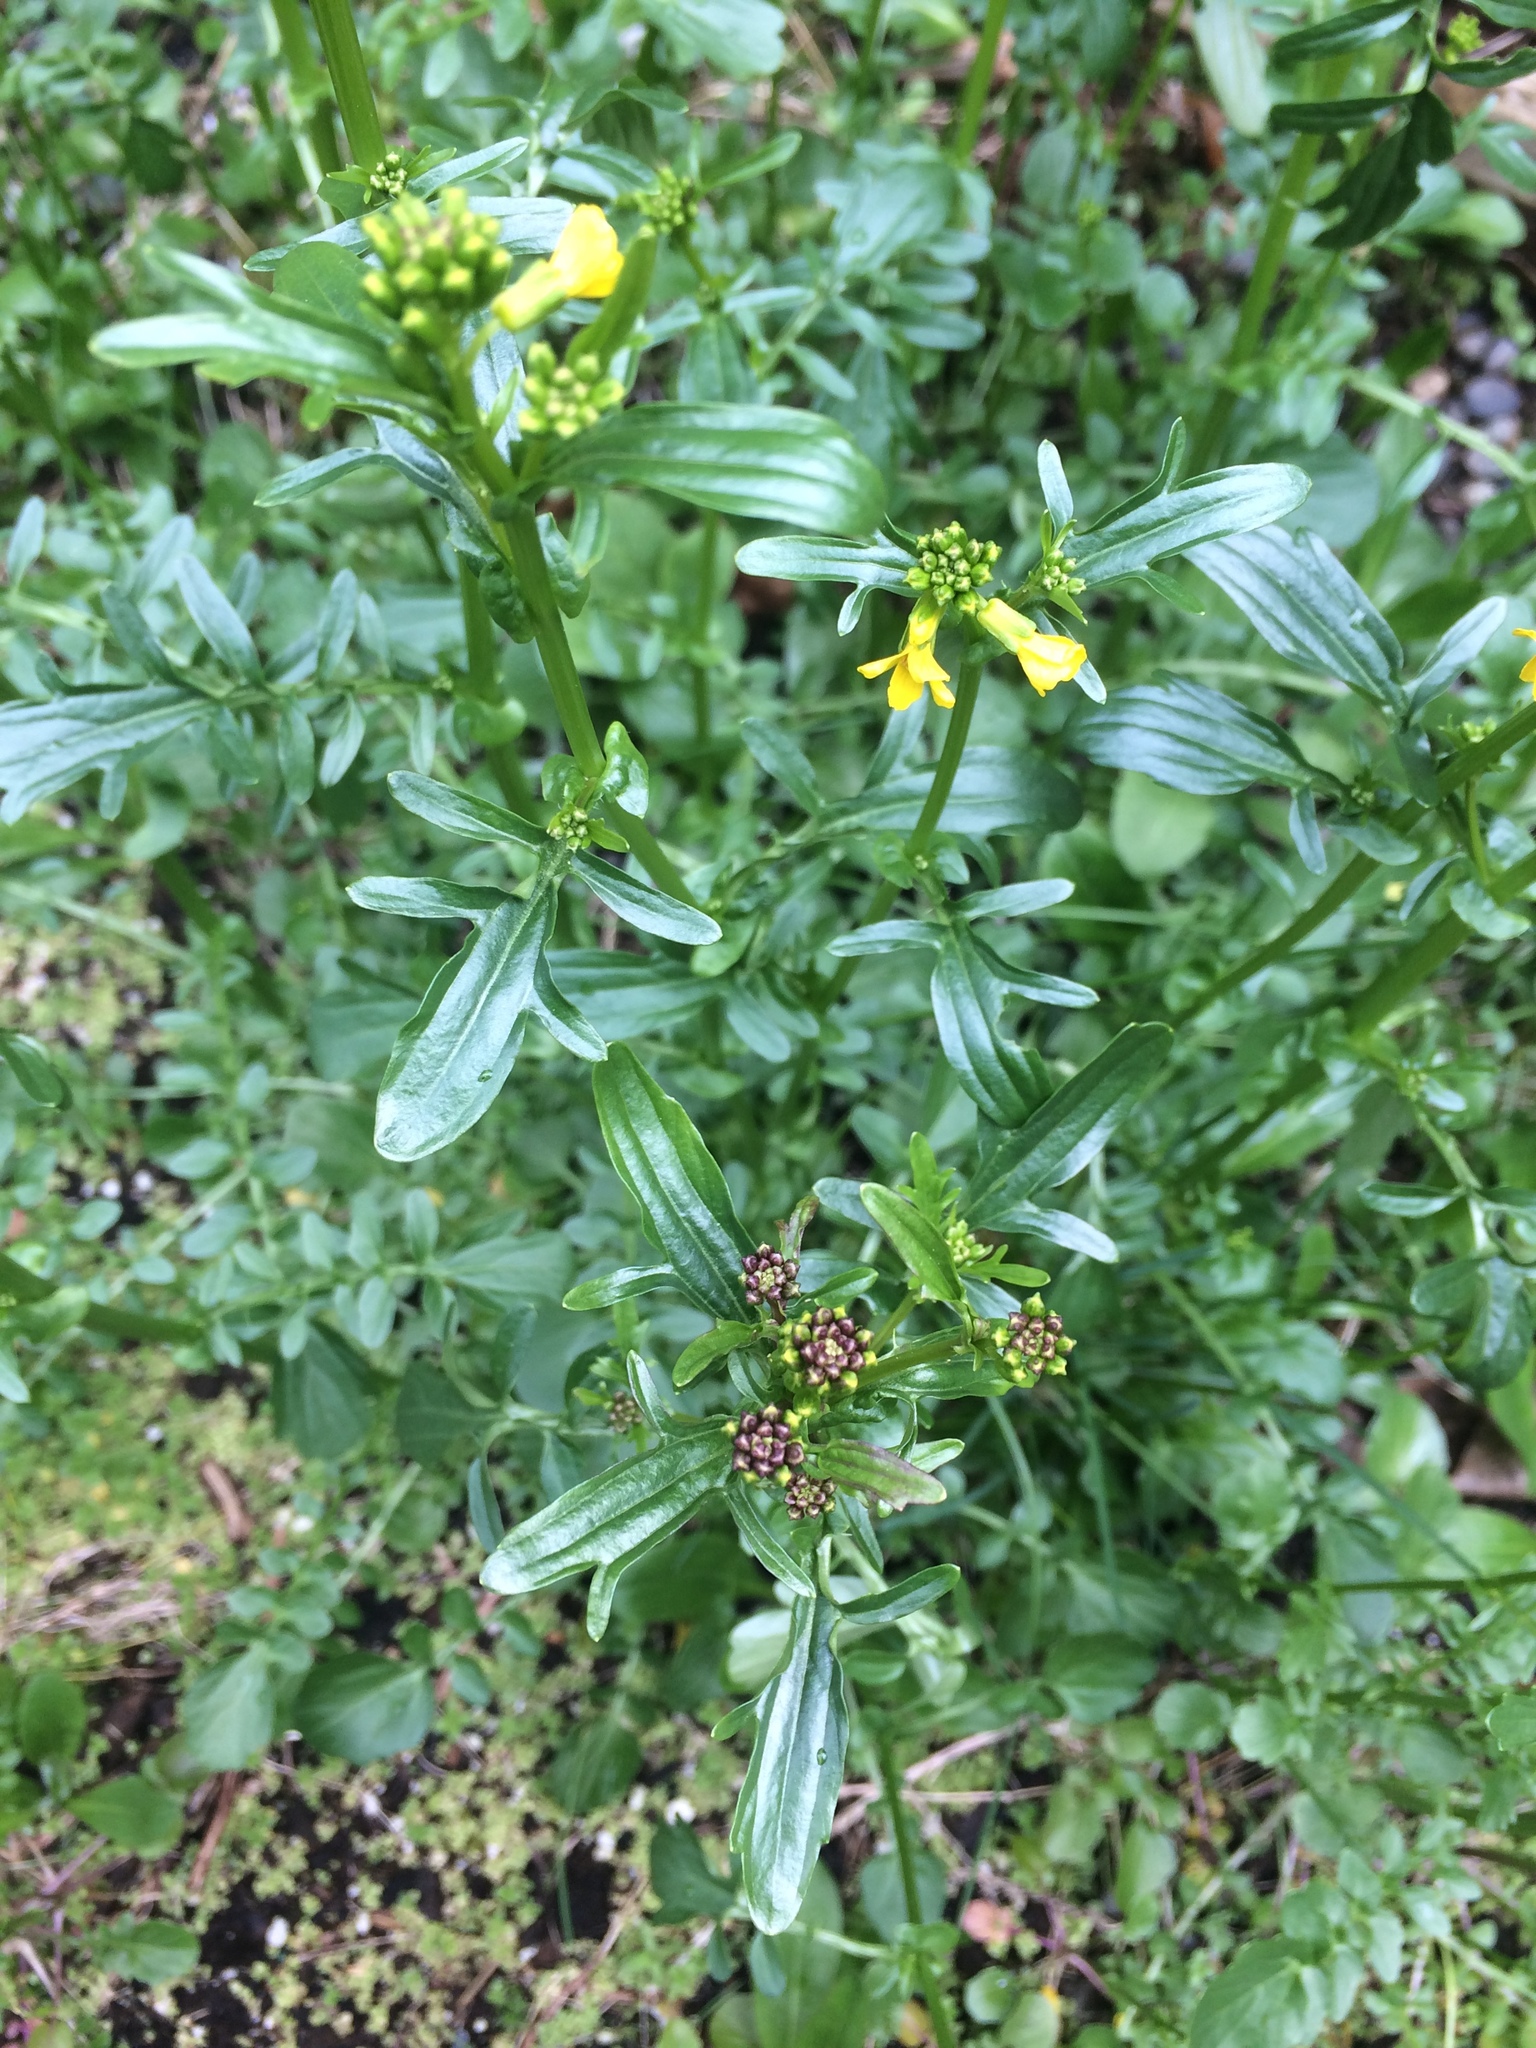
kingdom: Plantae
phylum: Tracheophyta
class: Magnoliopsida
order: Brassicales
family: Brassicaceae
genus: Barbarea
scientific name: Barbarea verna
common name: American cress
